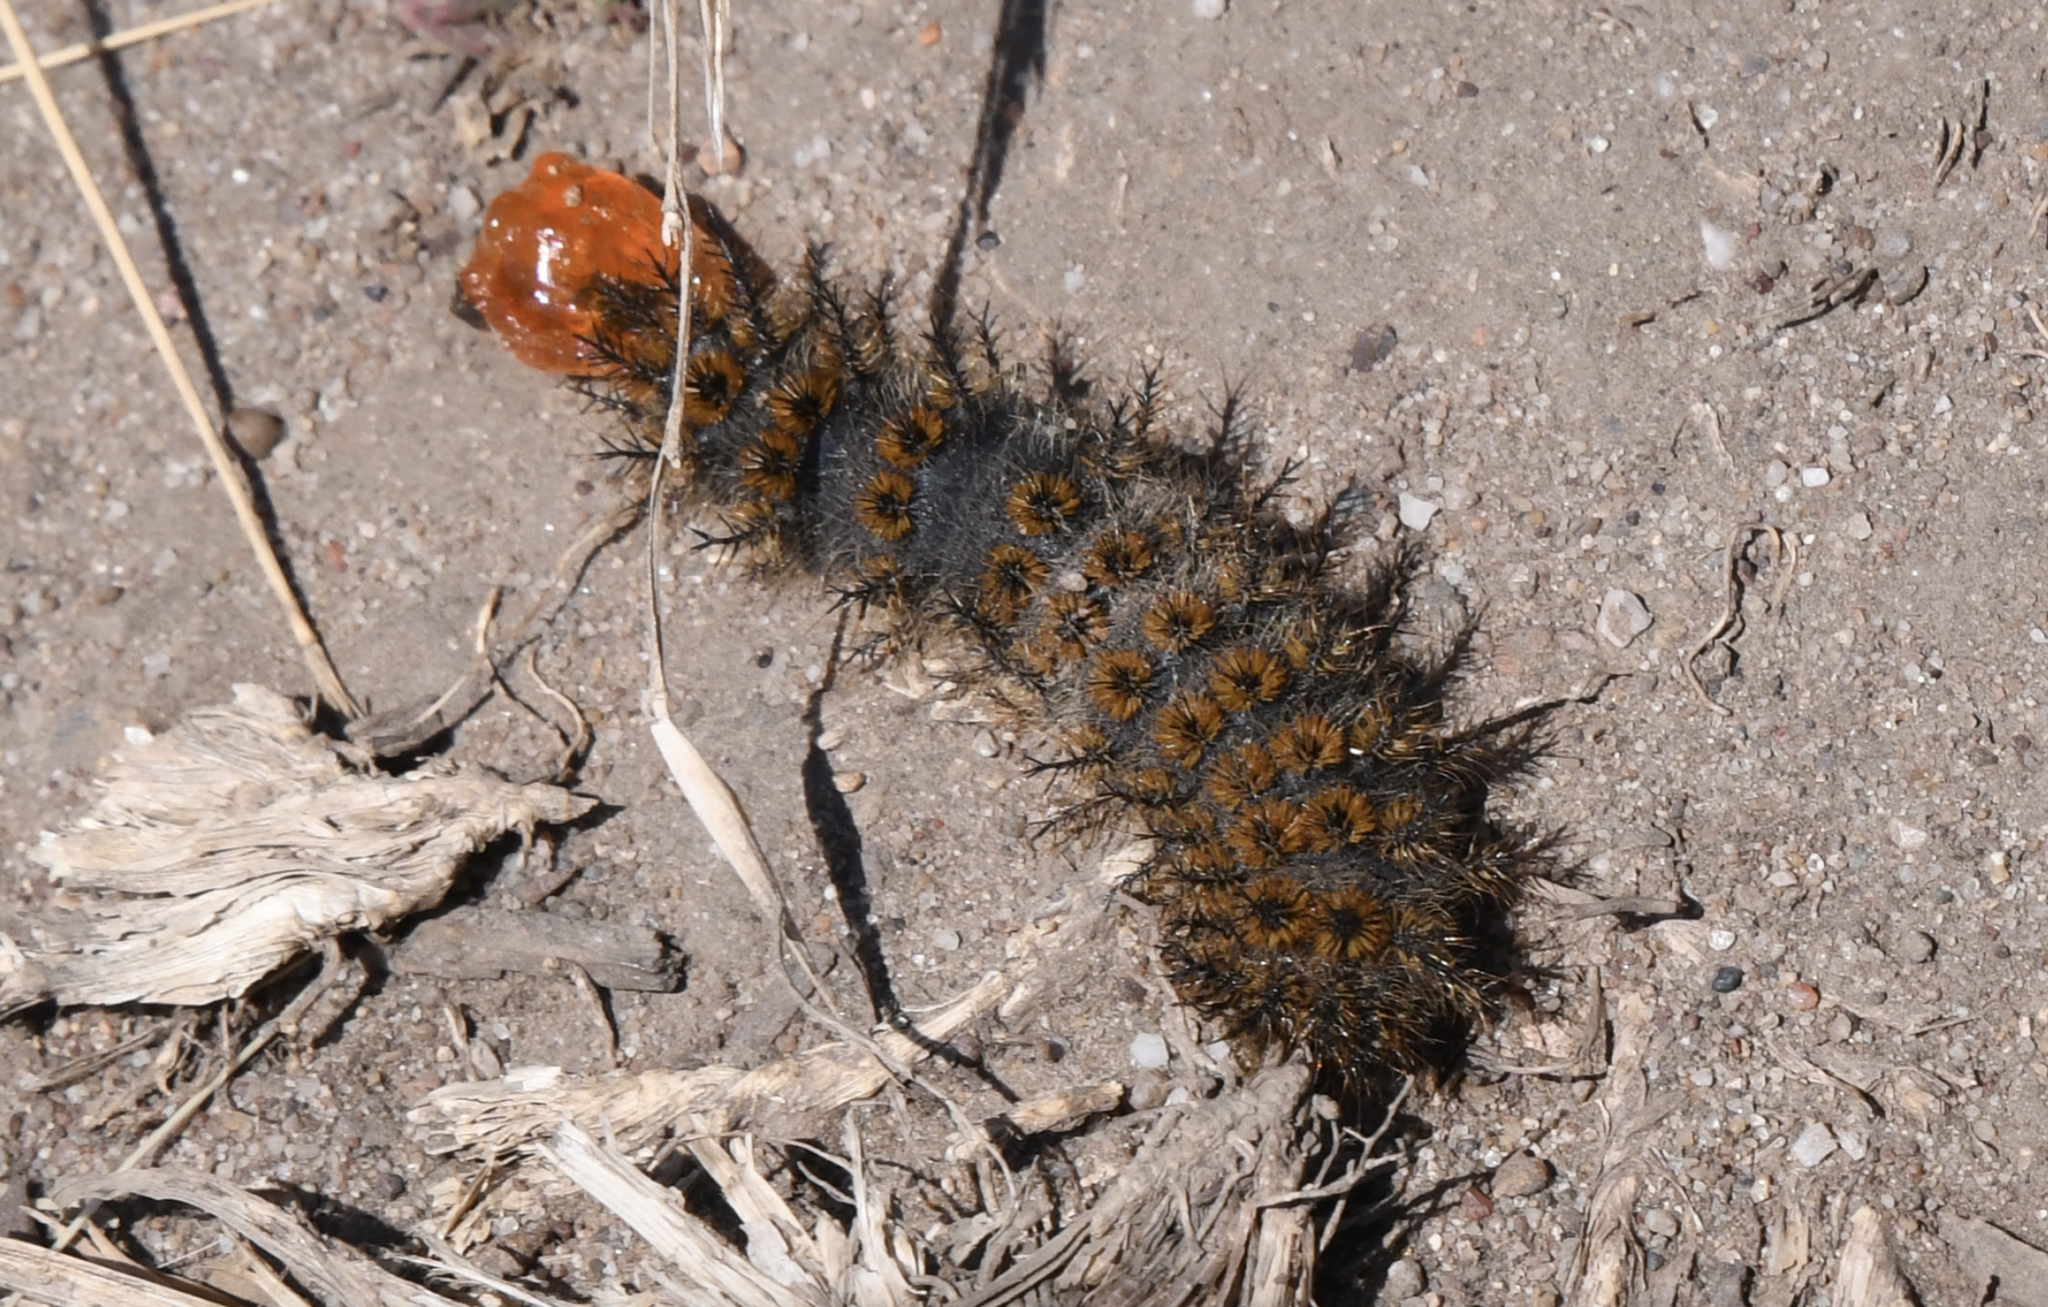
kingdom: Animalia
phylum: Arthropoda
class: Insecta
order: Lepidoptera
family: Saturniidae
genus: Hemileuca
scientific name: Hemileuca eglanterina
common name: Western sheepmoth
